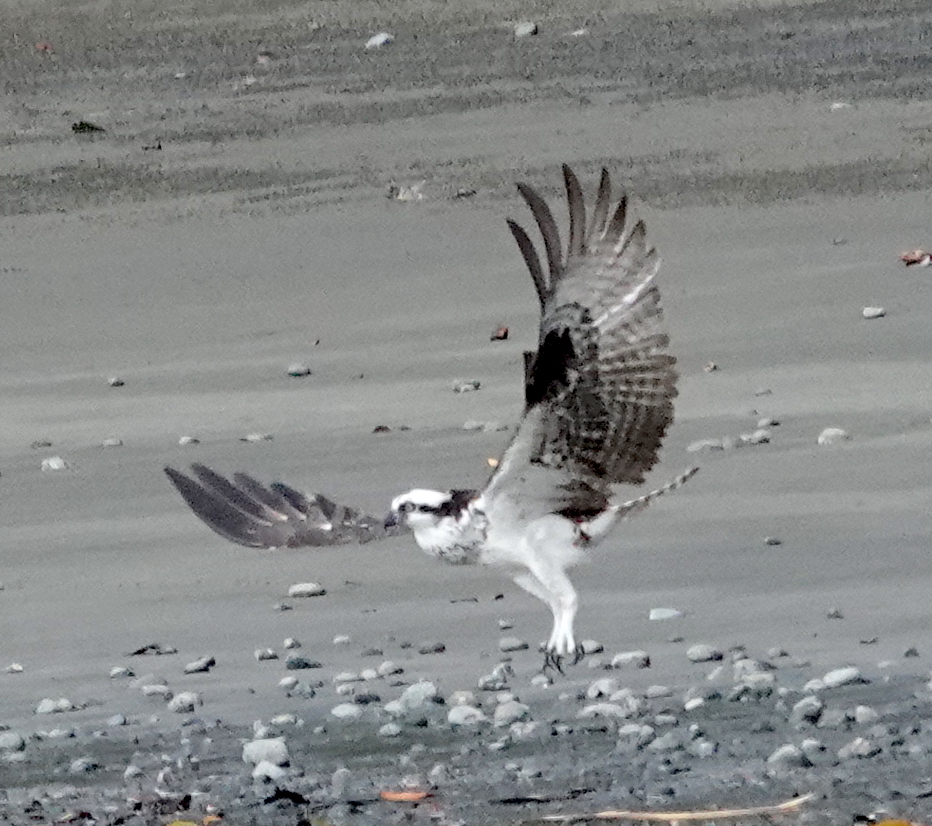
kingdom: Animalia
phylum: Chordata
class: Aves
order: Accipitriformes
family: Pandionidae
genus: Pandion
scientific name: Pandion haliaetus
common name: Osprey
